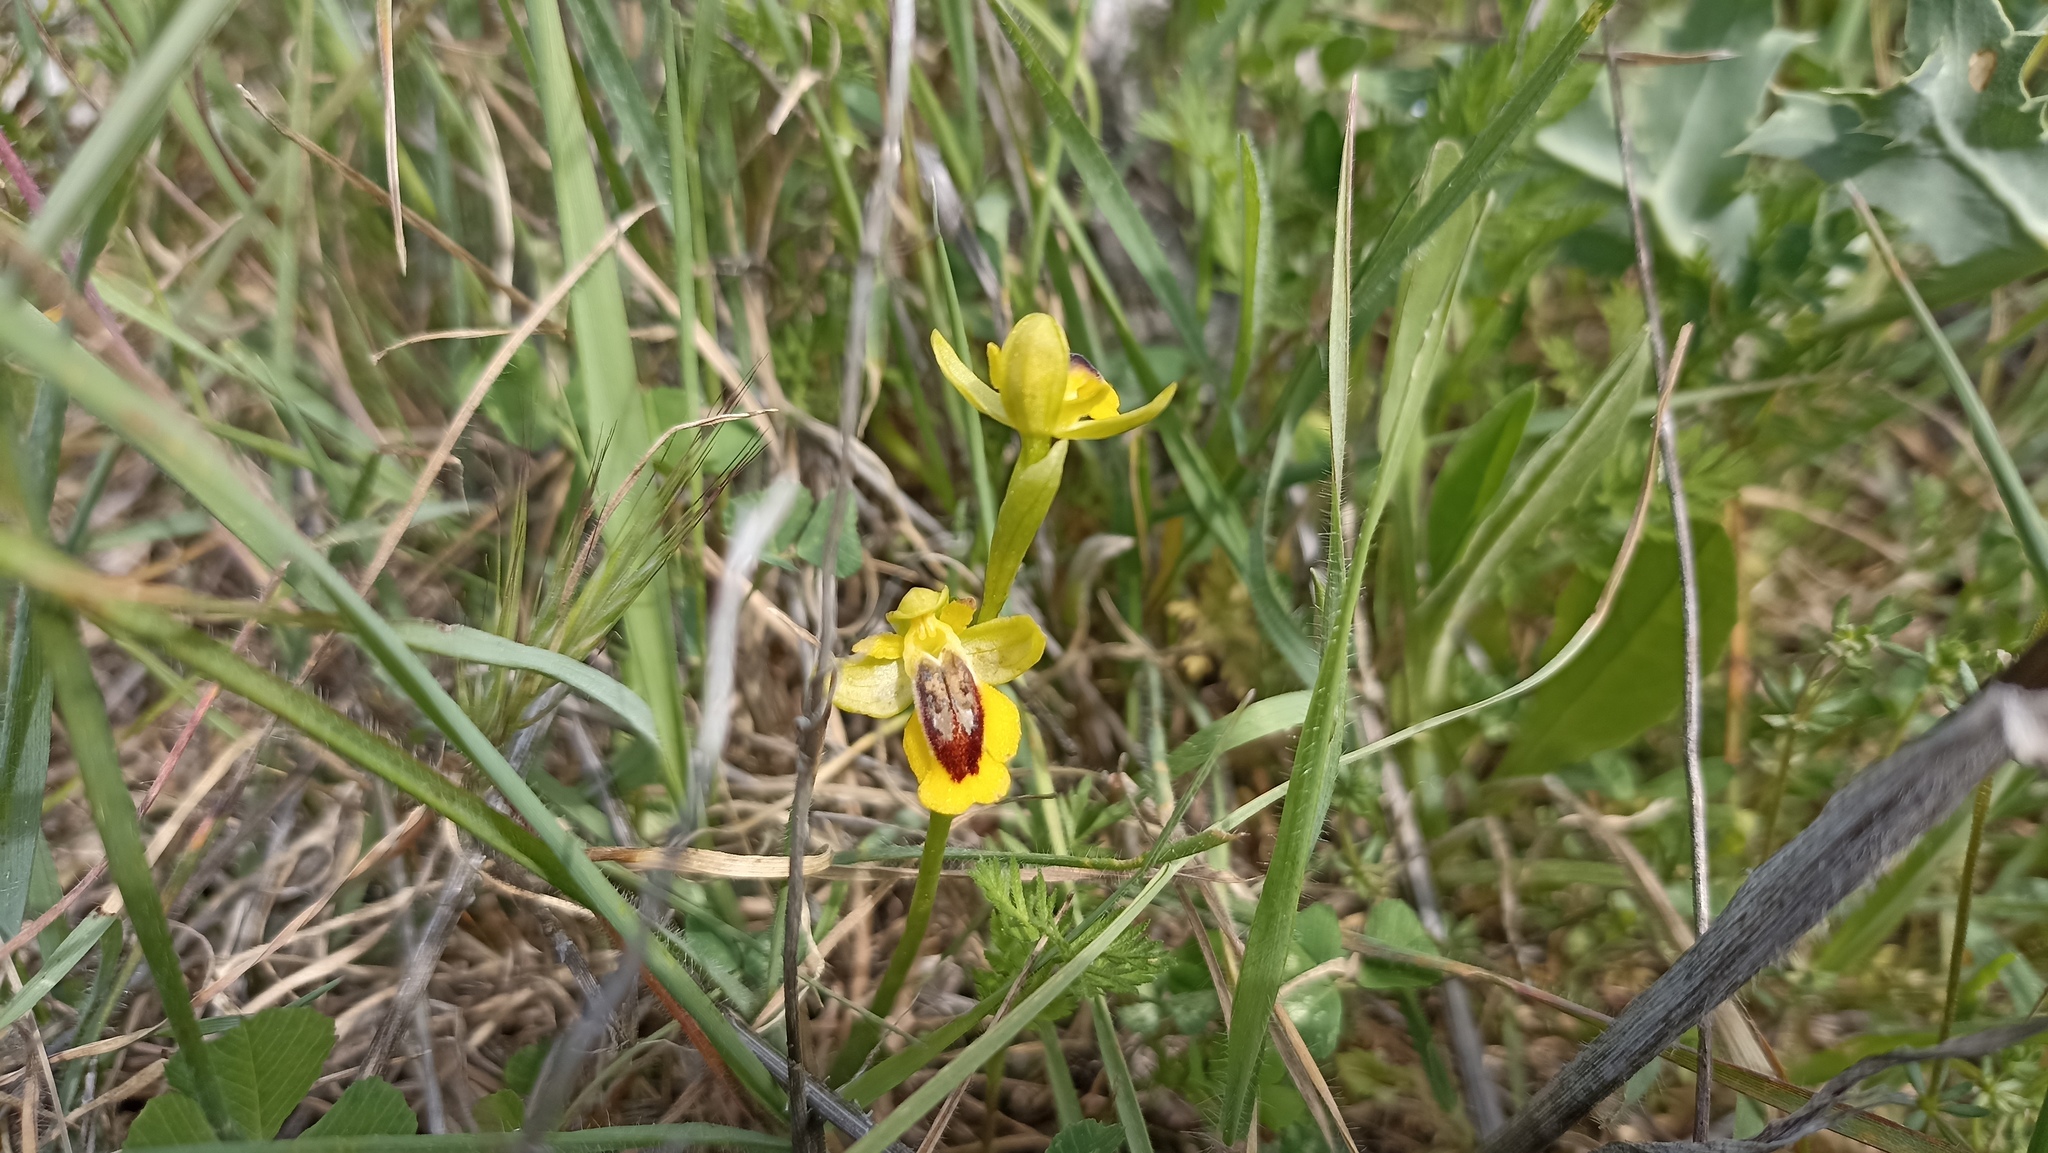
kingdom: Plantae
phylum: Tracheophyta
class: Liliopsida
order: Asparagales
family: Orchidaceae
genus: Ophrys
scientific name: Ophrys lutea
